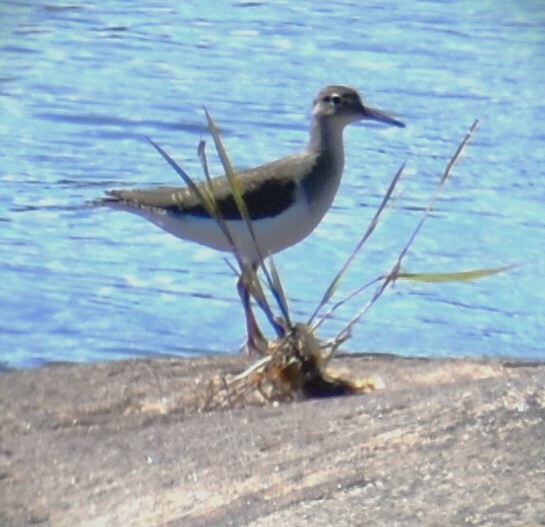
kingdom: Animalia
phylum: Chordata
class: Aves
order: Charadriiformes
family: Scolopacidae
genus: Actitis
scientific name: Actitis macularius
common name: Spotted sandpiper
